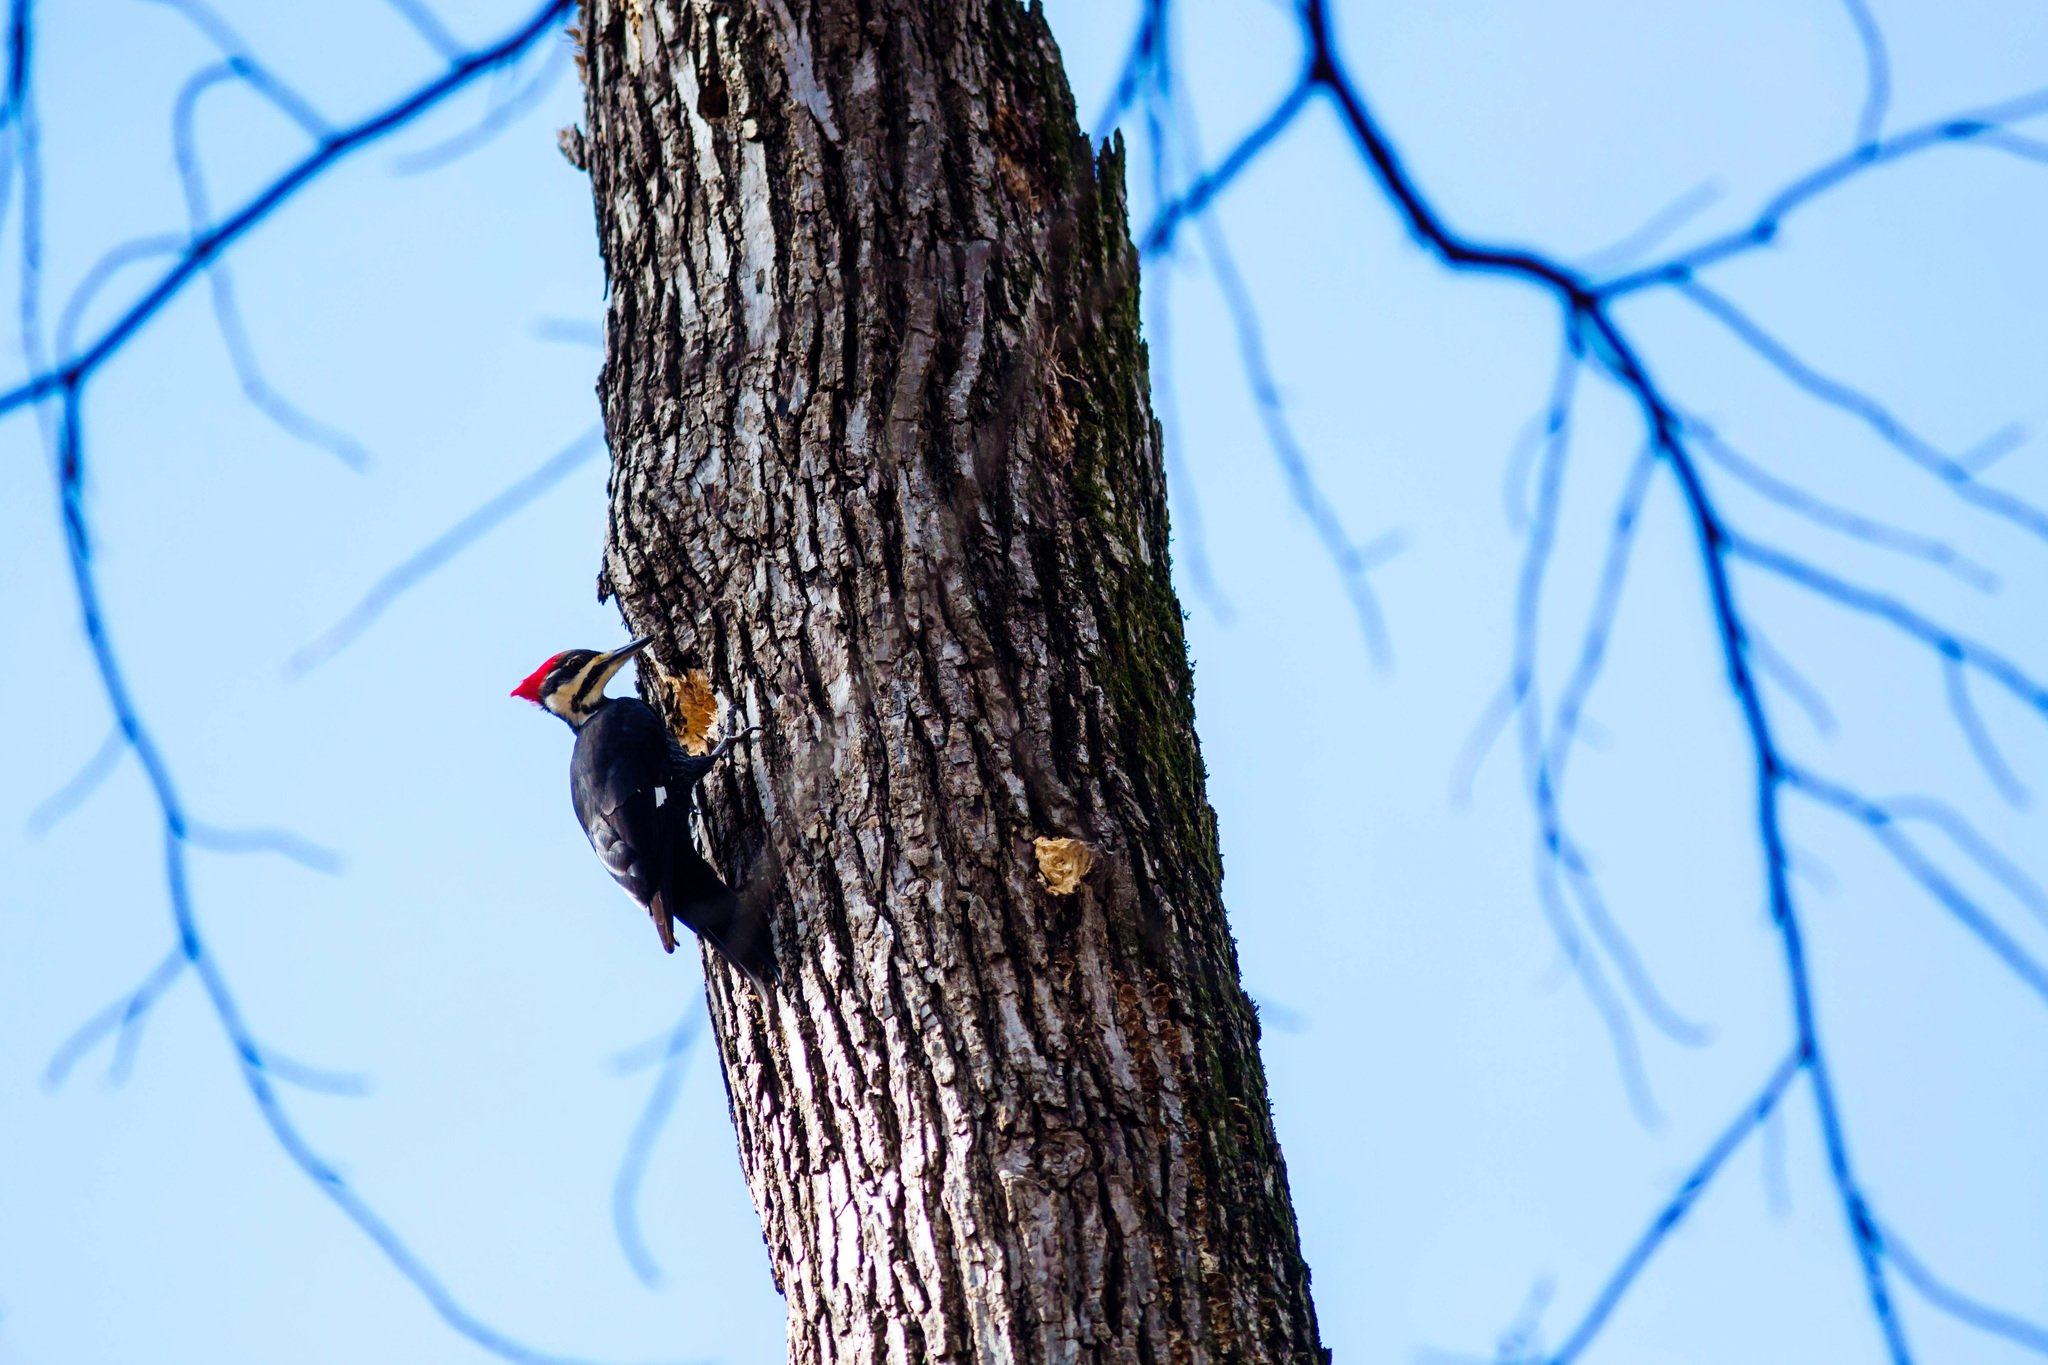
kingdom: Animalia
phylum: Chordata
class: Aves
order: Piciformes
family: Picidae
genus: Dryocopus
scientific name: Dryocopus pileatus
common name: Pileated woodpecker
